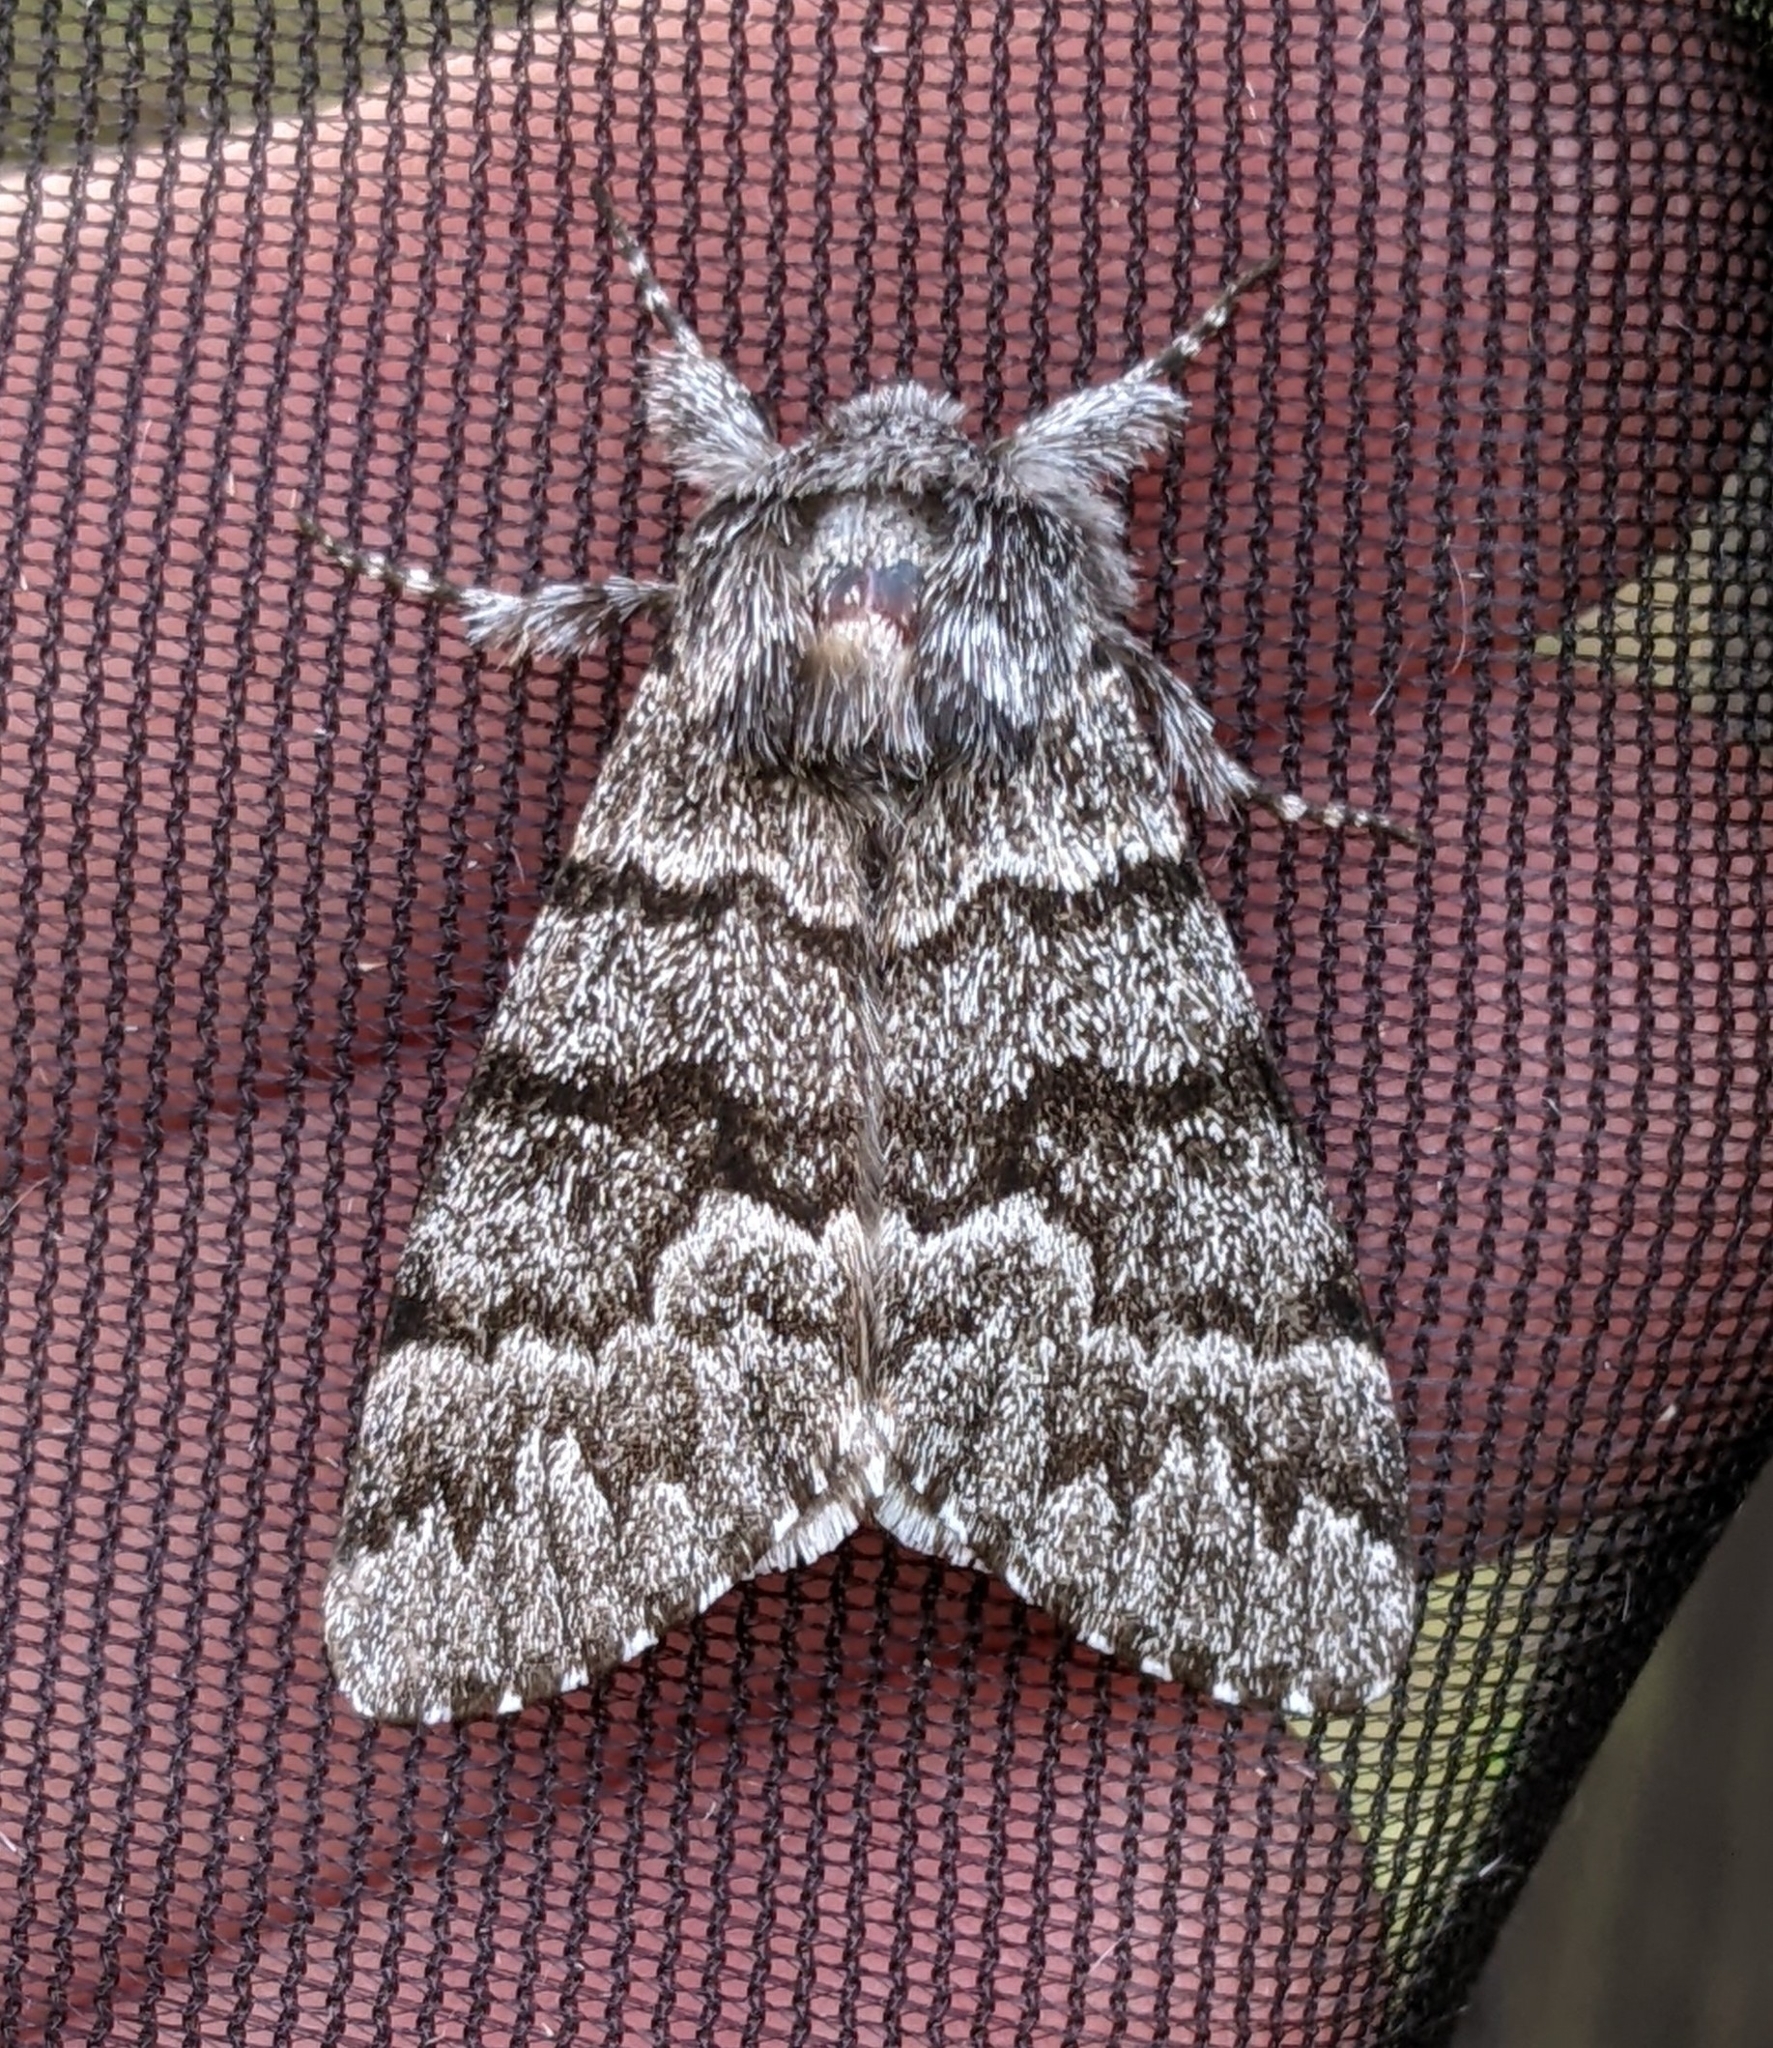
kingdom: Animalia
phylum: Arthropoda
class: Insecta
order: Lepidoptera
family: Noctuidae
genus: Panthea
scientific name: Panthea virginarius
